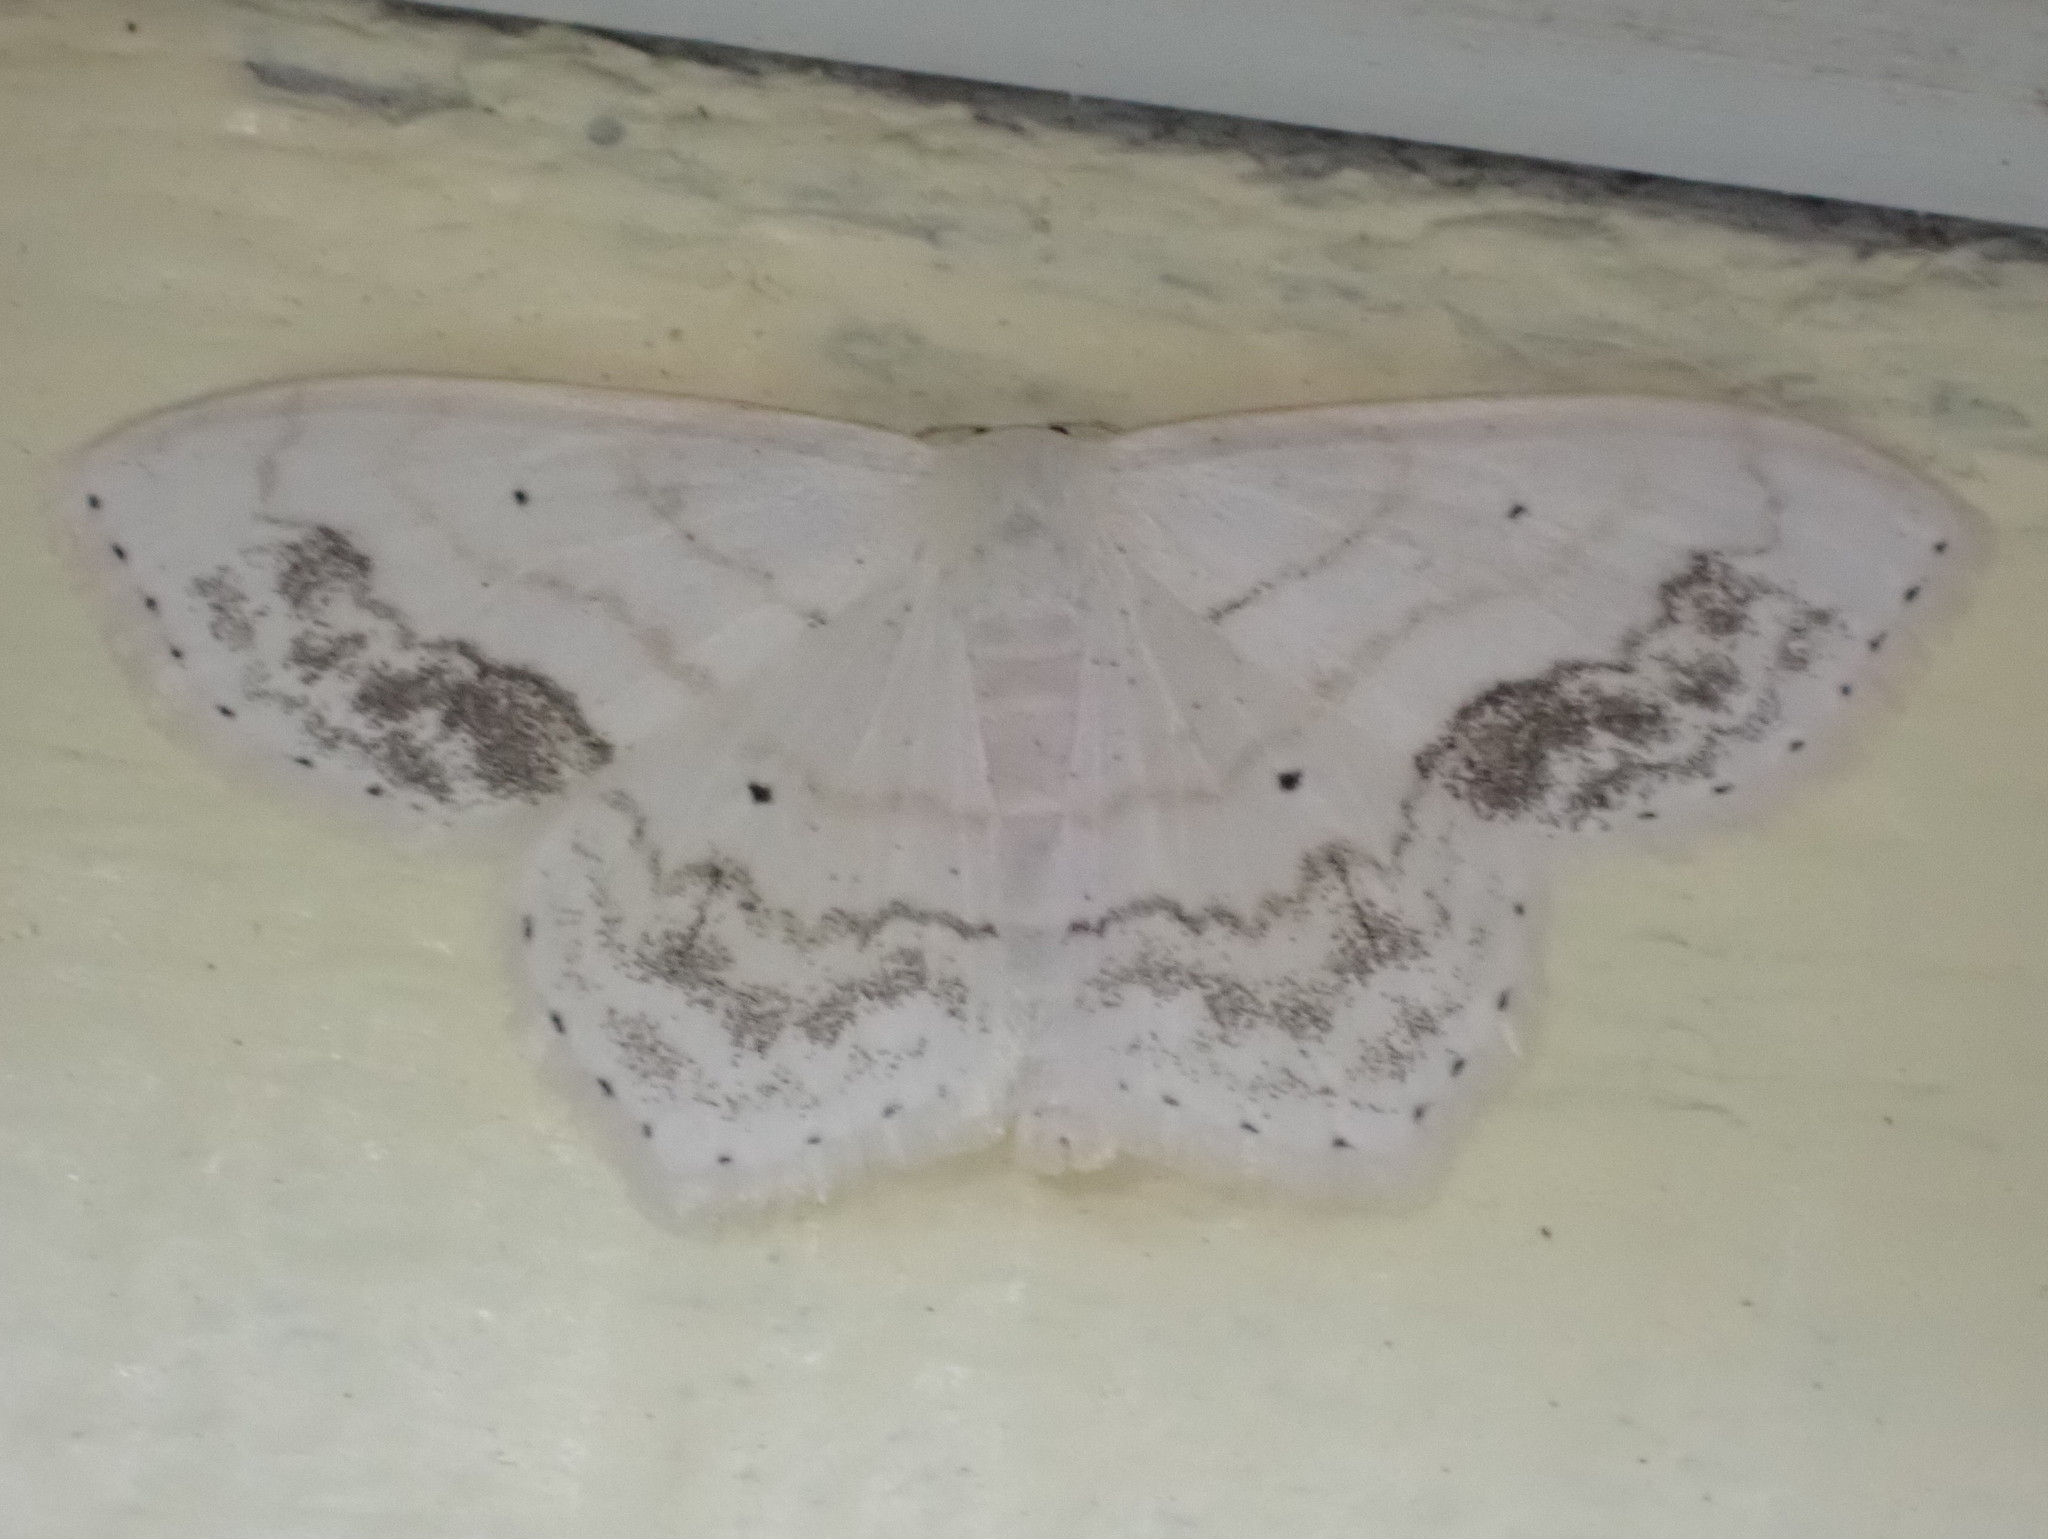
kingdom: Animalia
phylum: Arthropoda
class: Insecta
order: Lepidoptera
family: Geometridae
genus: Scopula
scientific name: Scopula limboundata
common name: Large lace border
